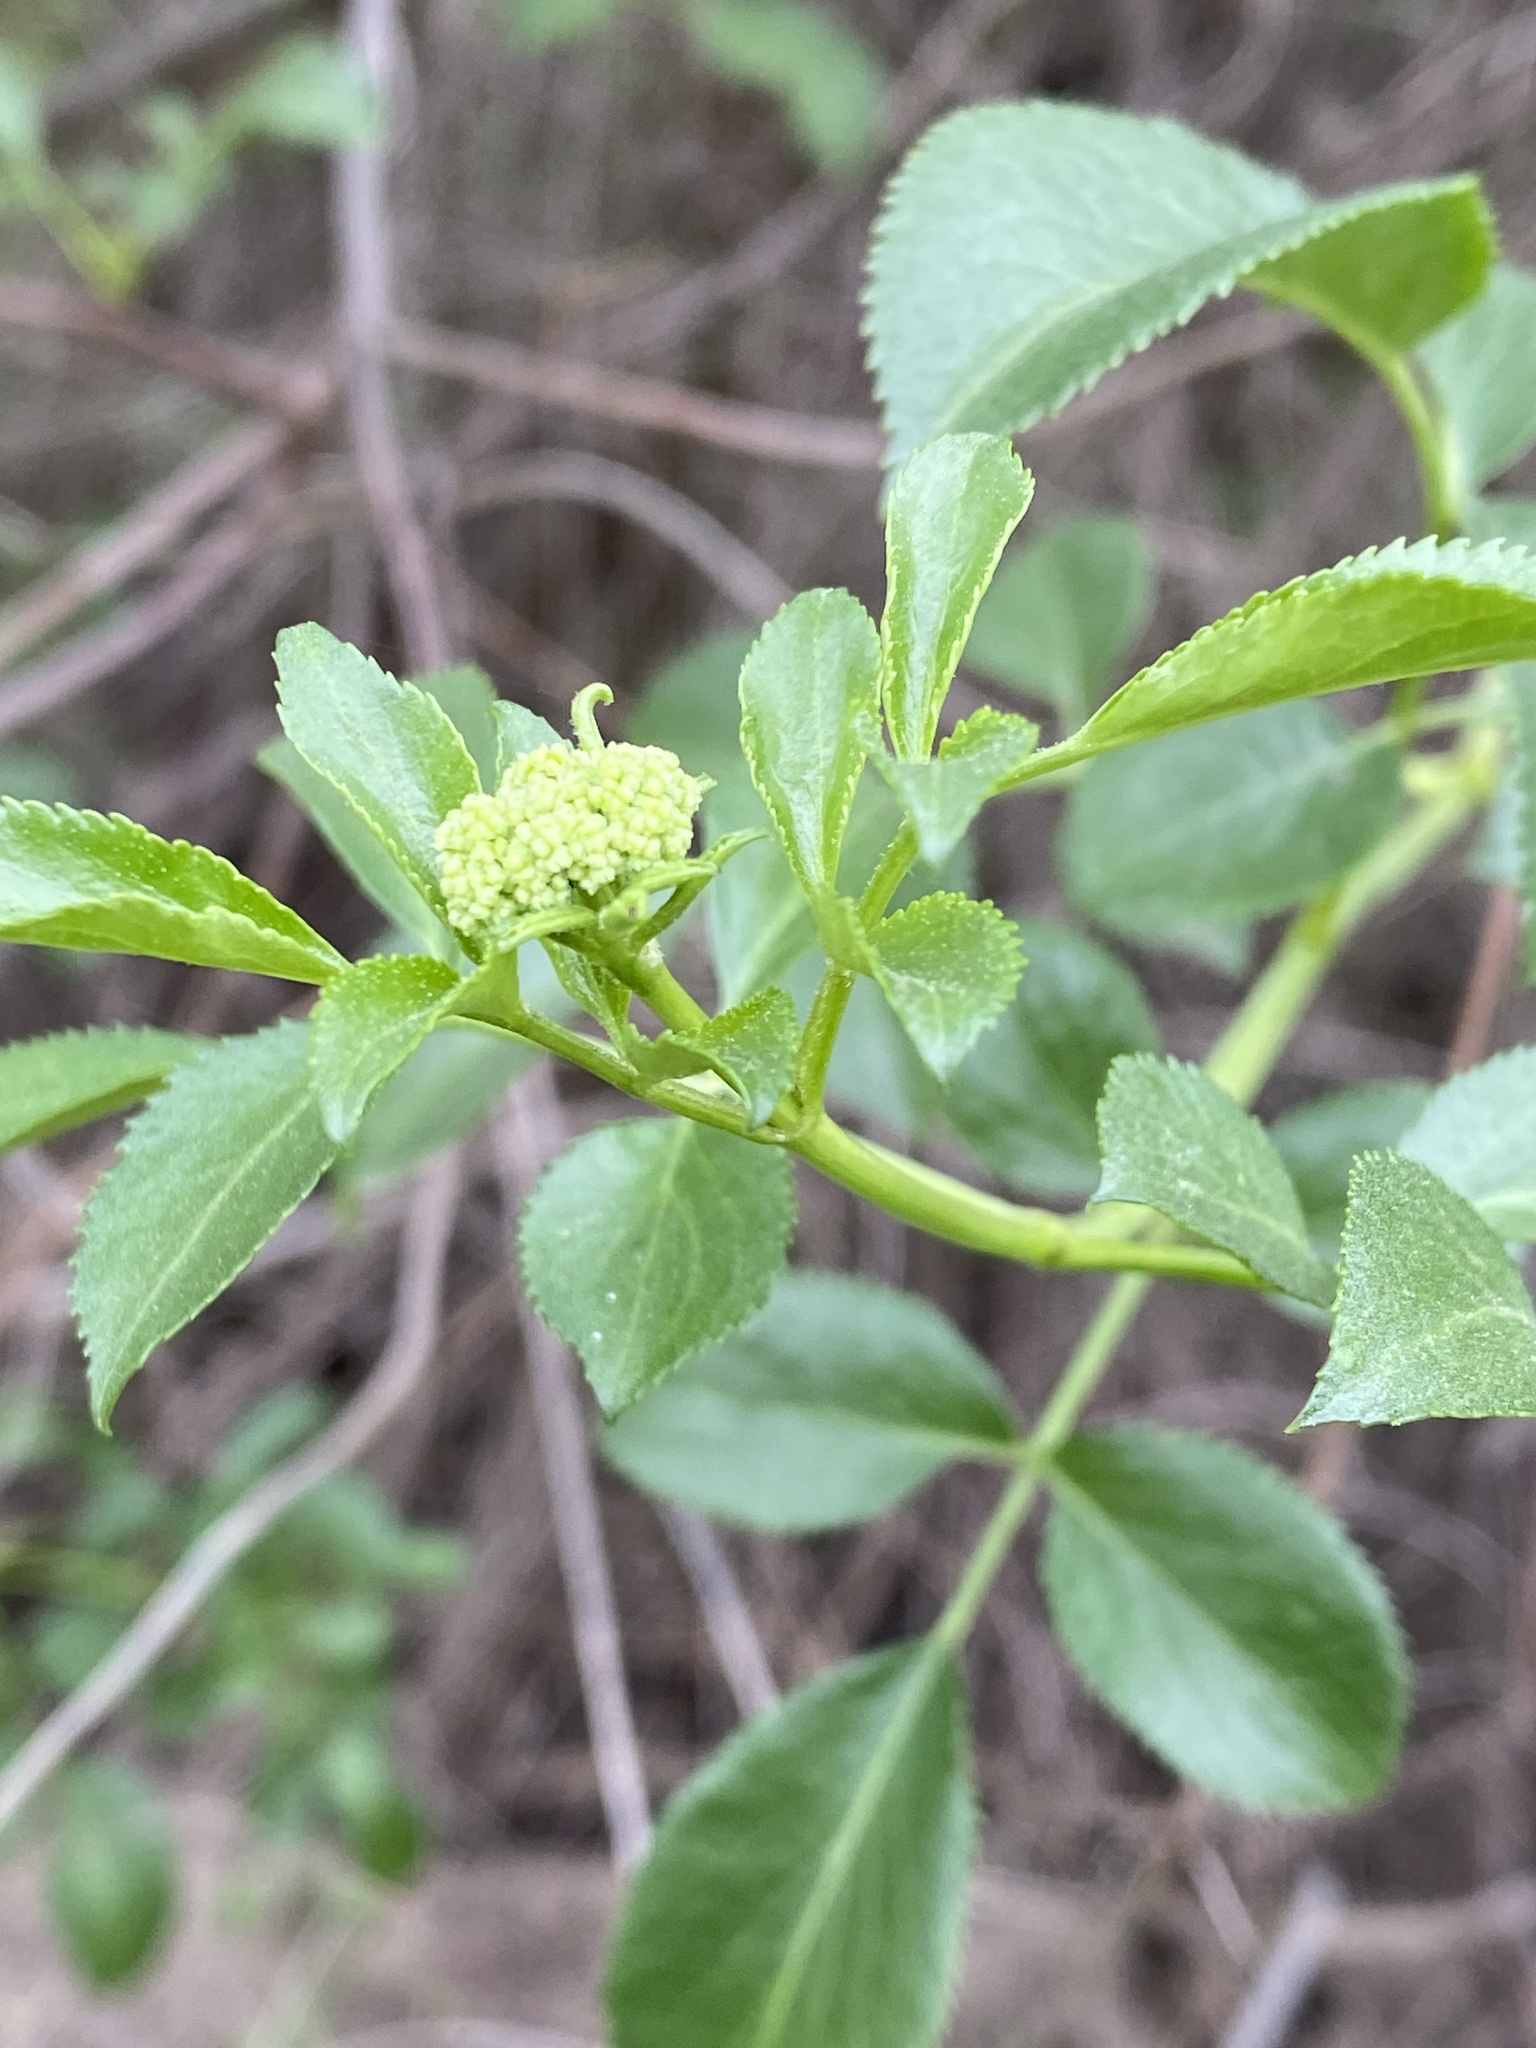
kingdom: Plantae
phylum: Tracheophyta
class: Magnoliopsida
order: Dipsacales
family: Viburnaceae
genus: Sambucus
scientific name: Sambucus cerulea
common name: Blue elder
